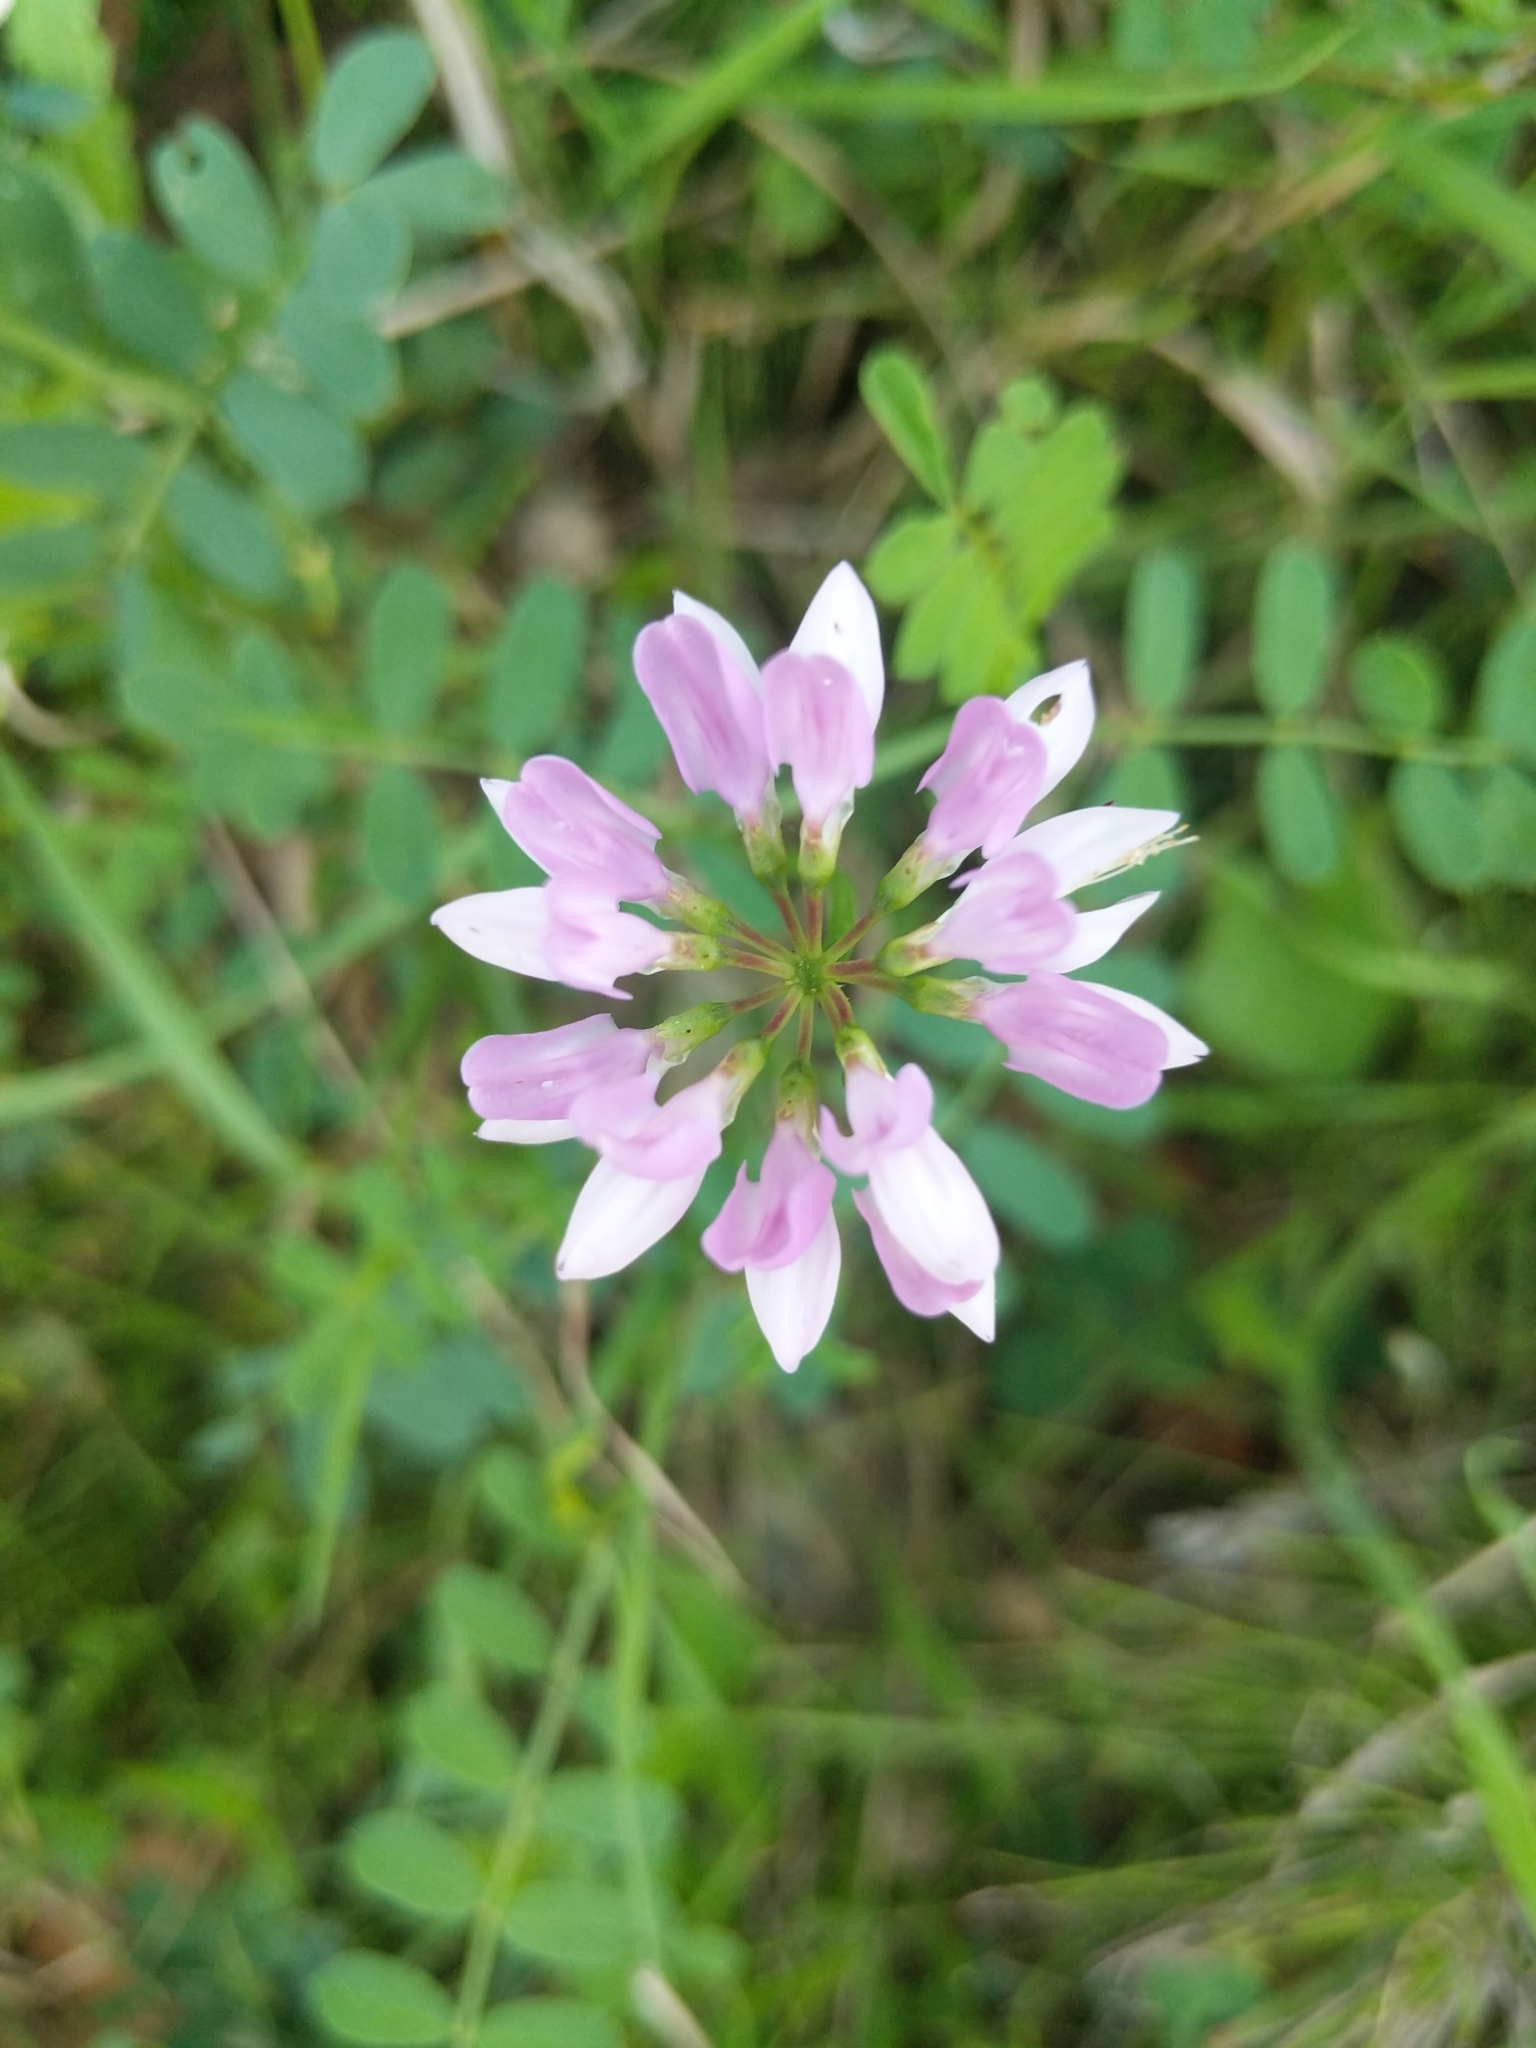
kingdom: Plantae
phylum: Tracheophyta
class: Magnoliopsida
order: Fabales
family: Fabaceae
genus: Coronilla
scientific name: Coronilla varia
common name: Crownvetch
